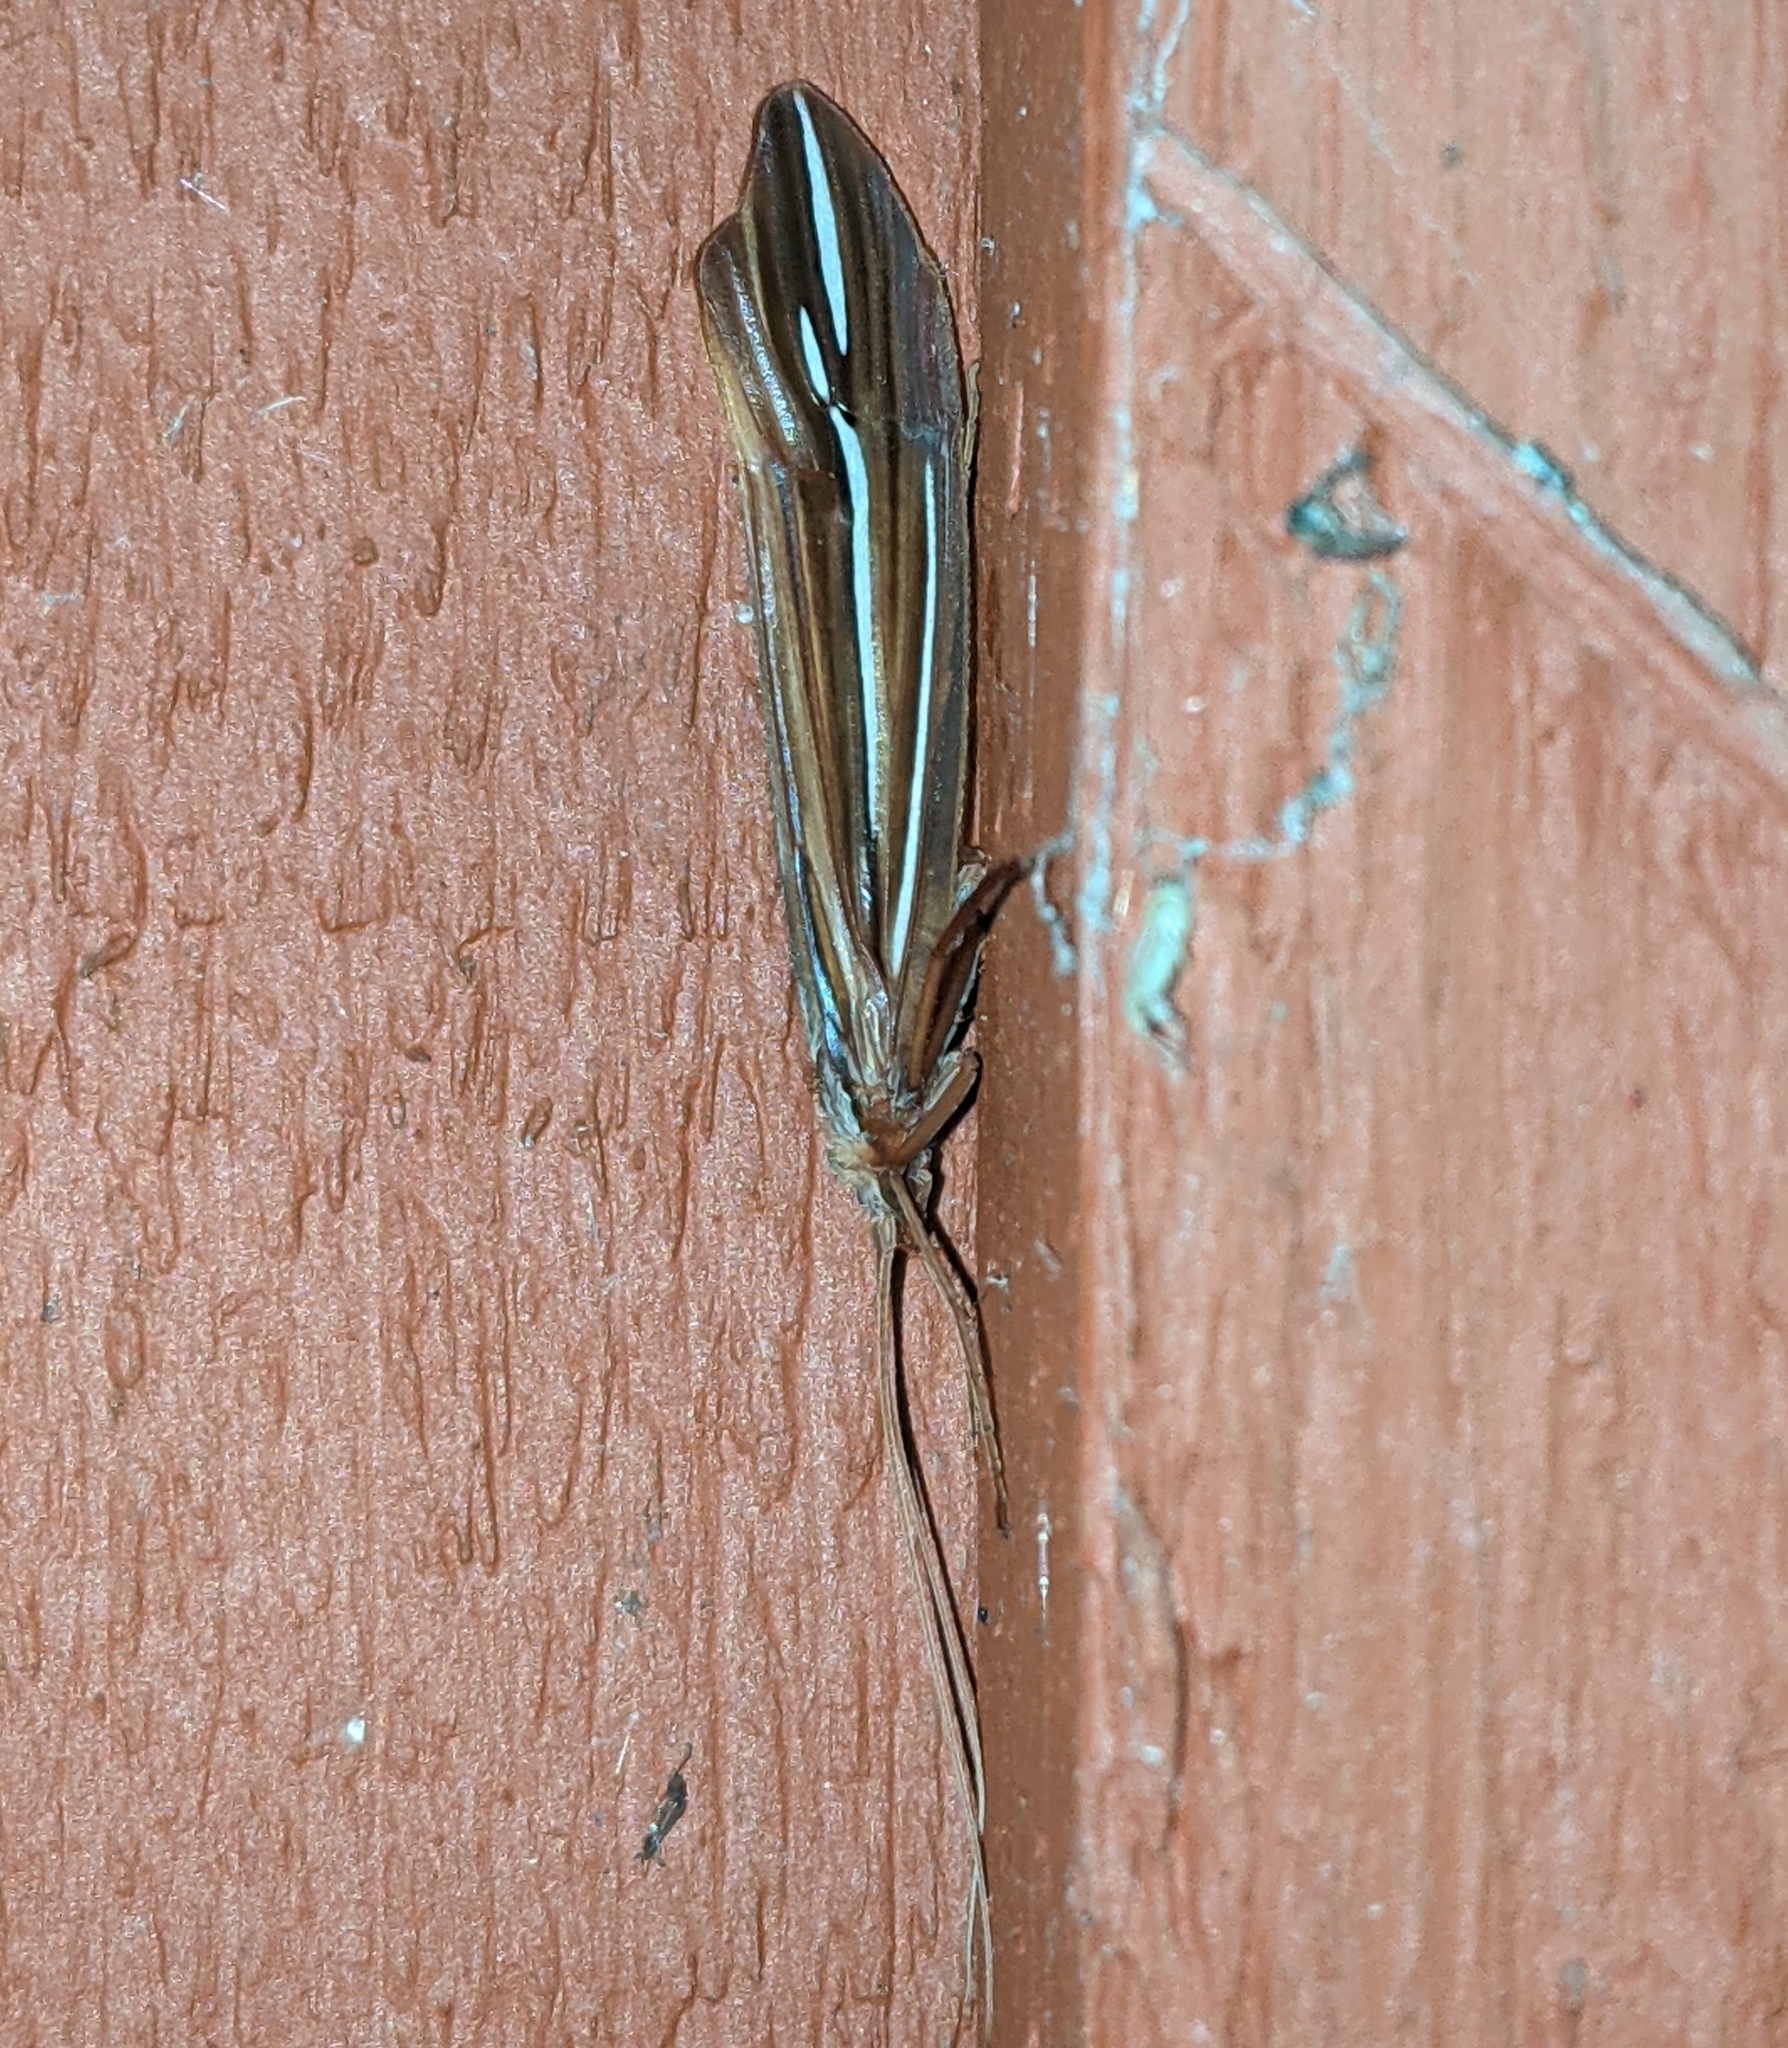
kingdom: Animalia
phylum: Arthropoda
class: Insecta
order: Trichoptera
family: Limnephilidae
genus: Psychoglypha
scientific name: Psychoglypha bella
